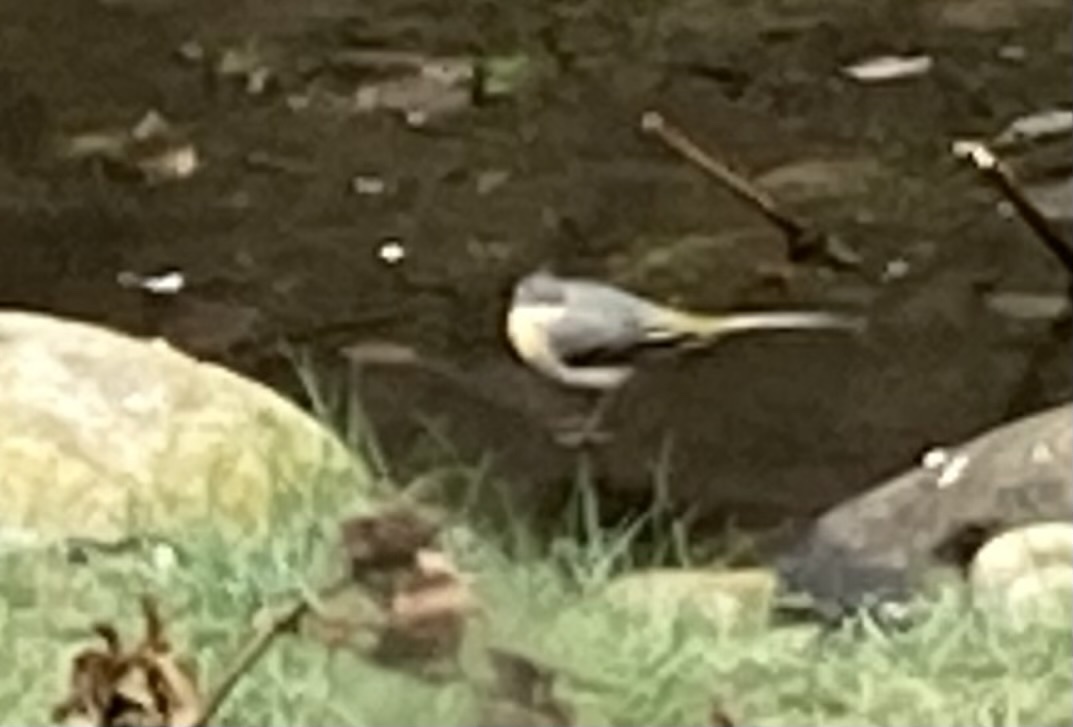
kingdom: Animalia
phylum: Chordata
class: Aves
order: Passeriformes
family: Motacillidae
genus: Motacilla
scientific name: Motacilla cinerea
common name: Grey wagtail
